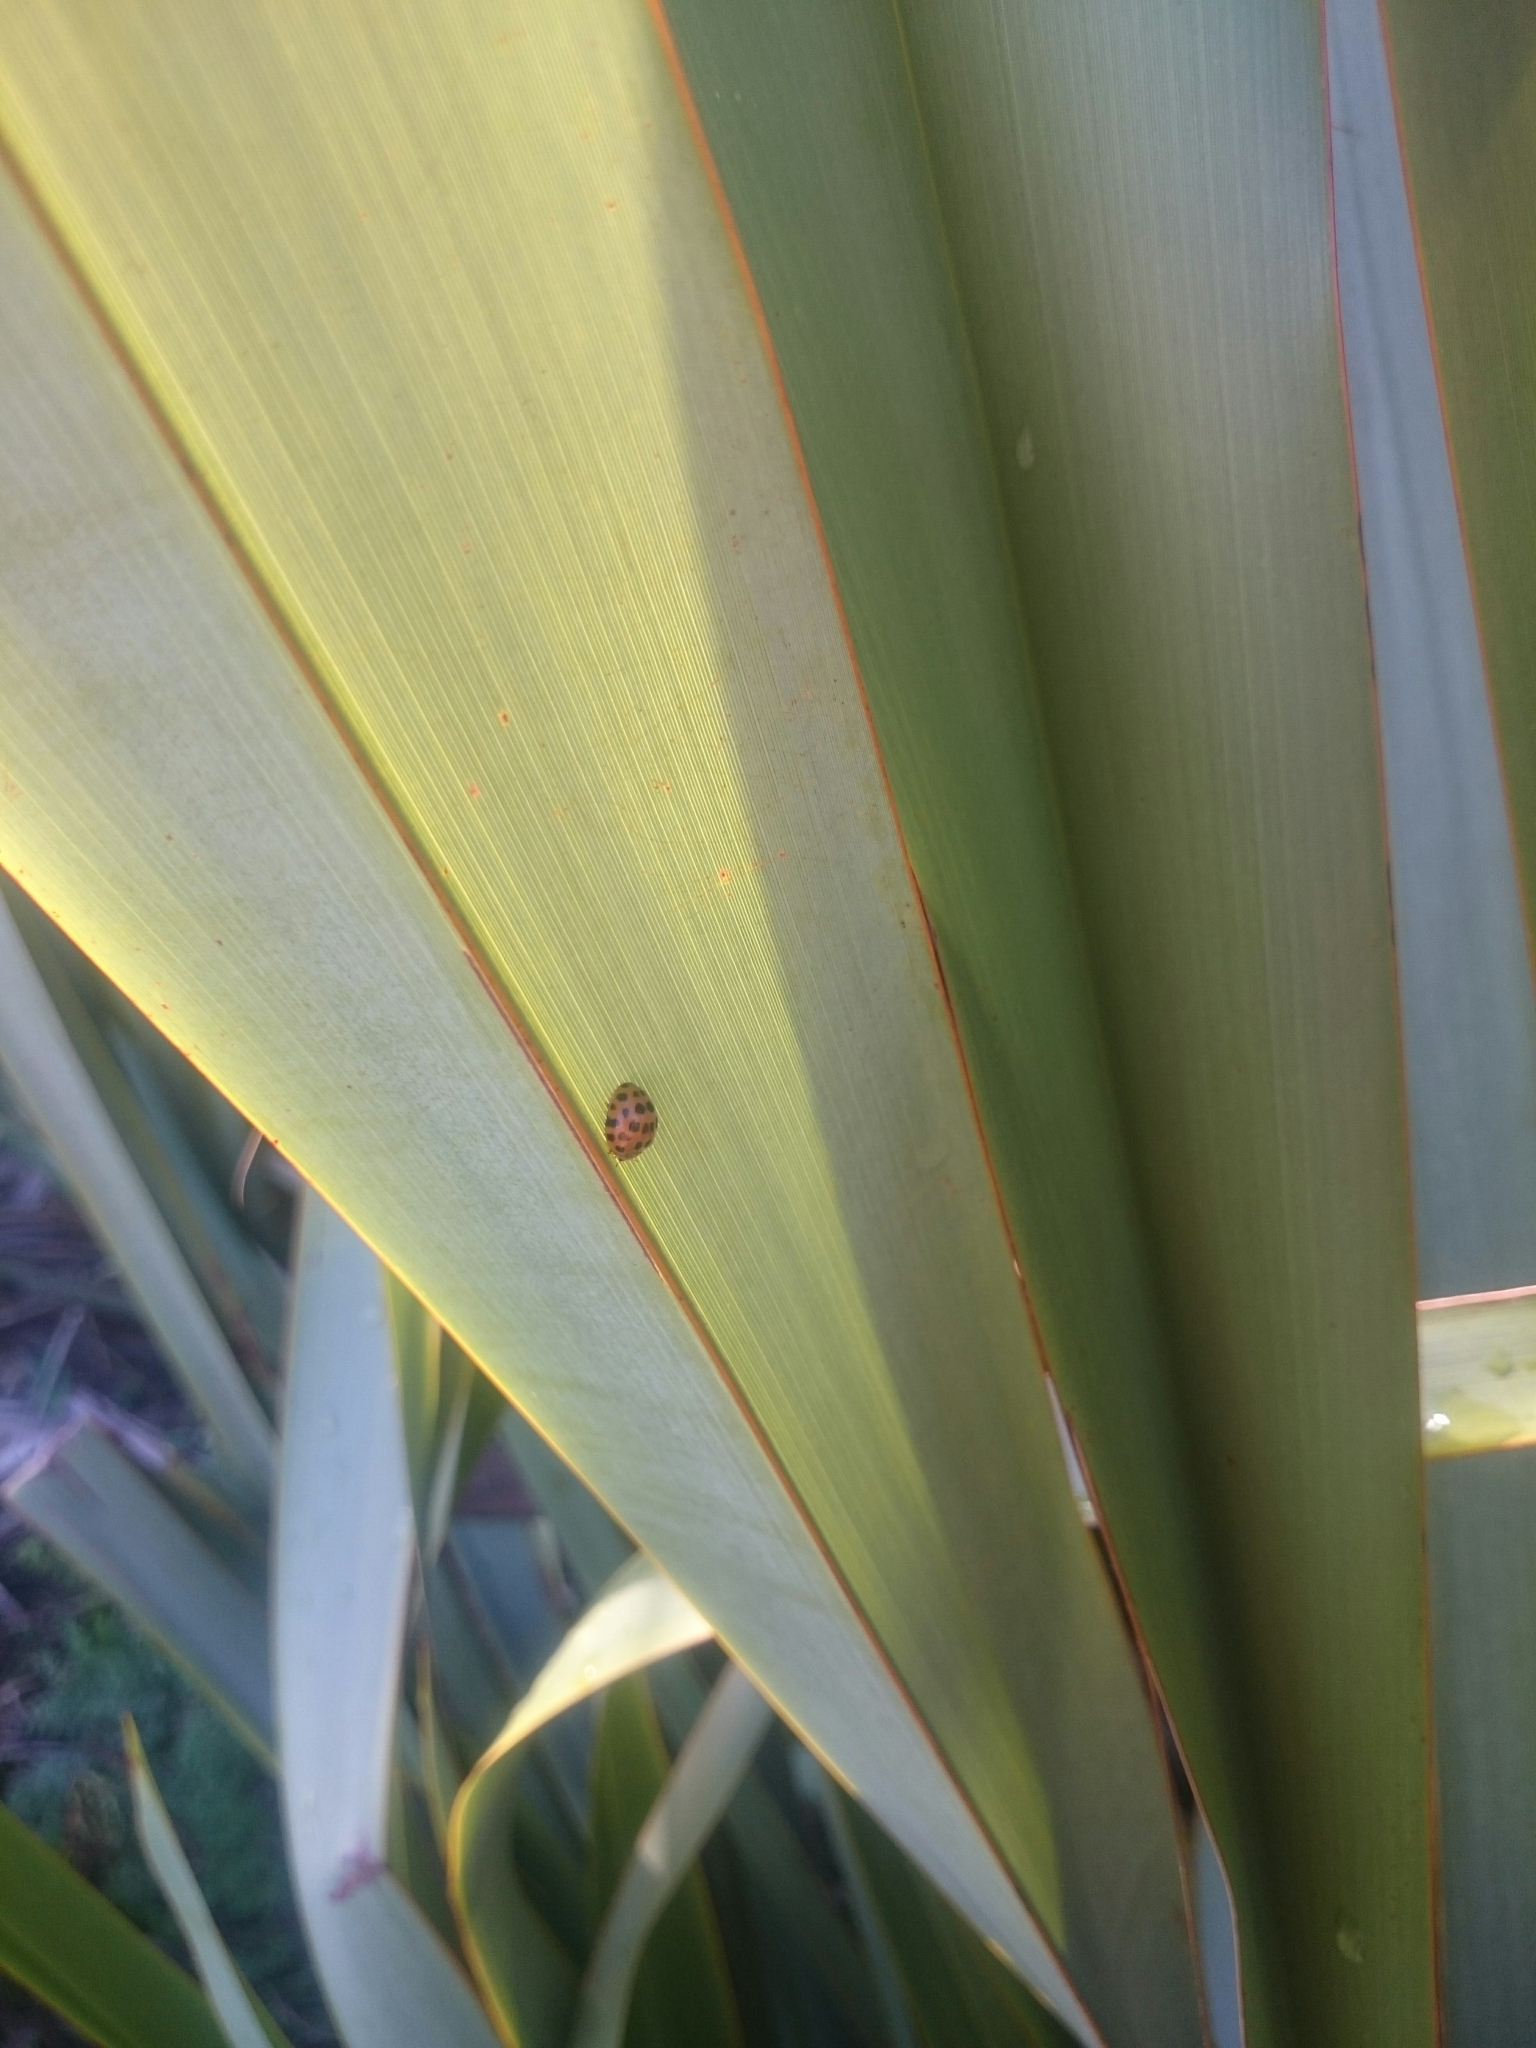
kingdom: Animalia
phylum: Arthropoda
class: Insecta
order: Coleoptera
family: Coccinellidae
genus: Henosepilachna
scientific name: Henosepilachna vigintioctopunctata
